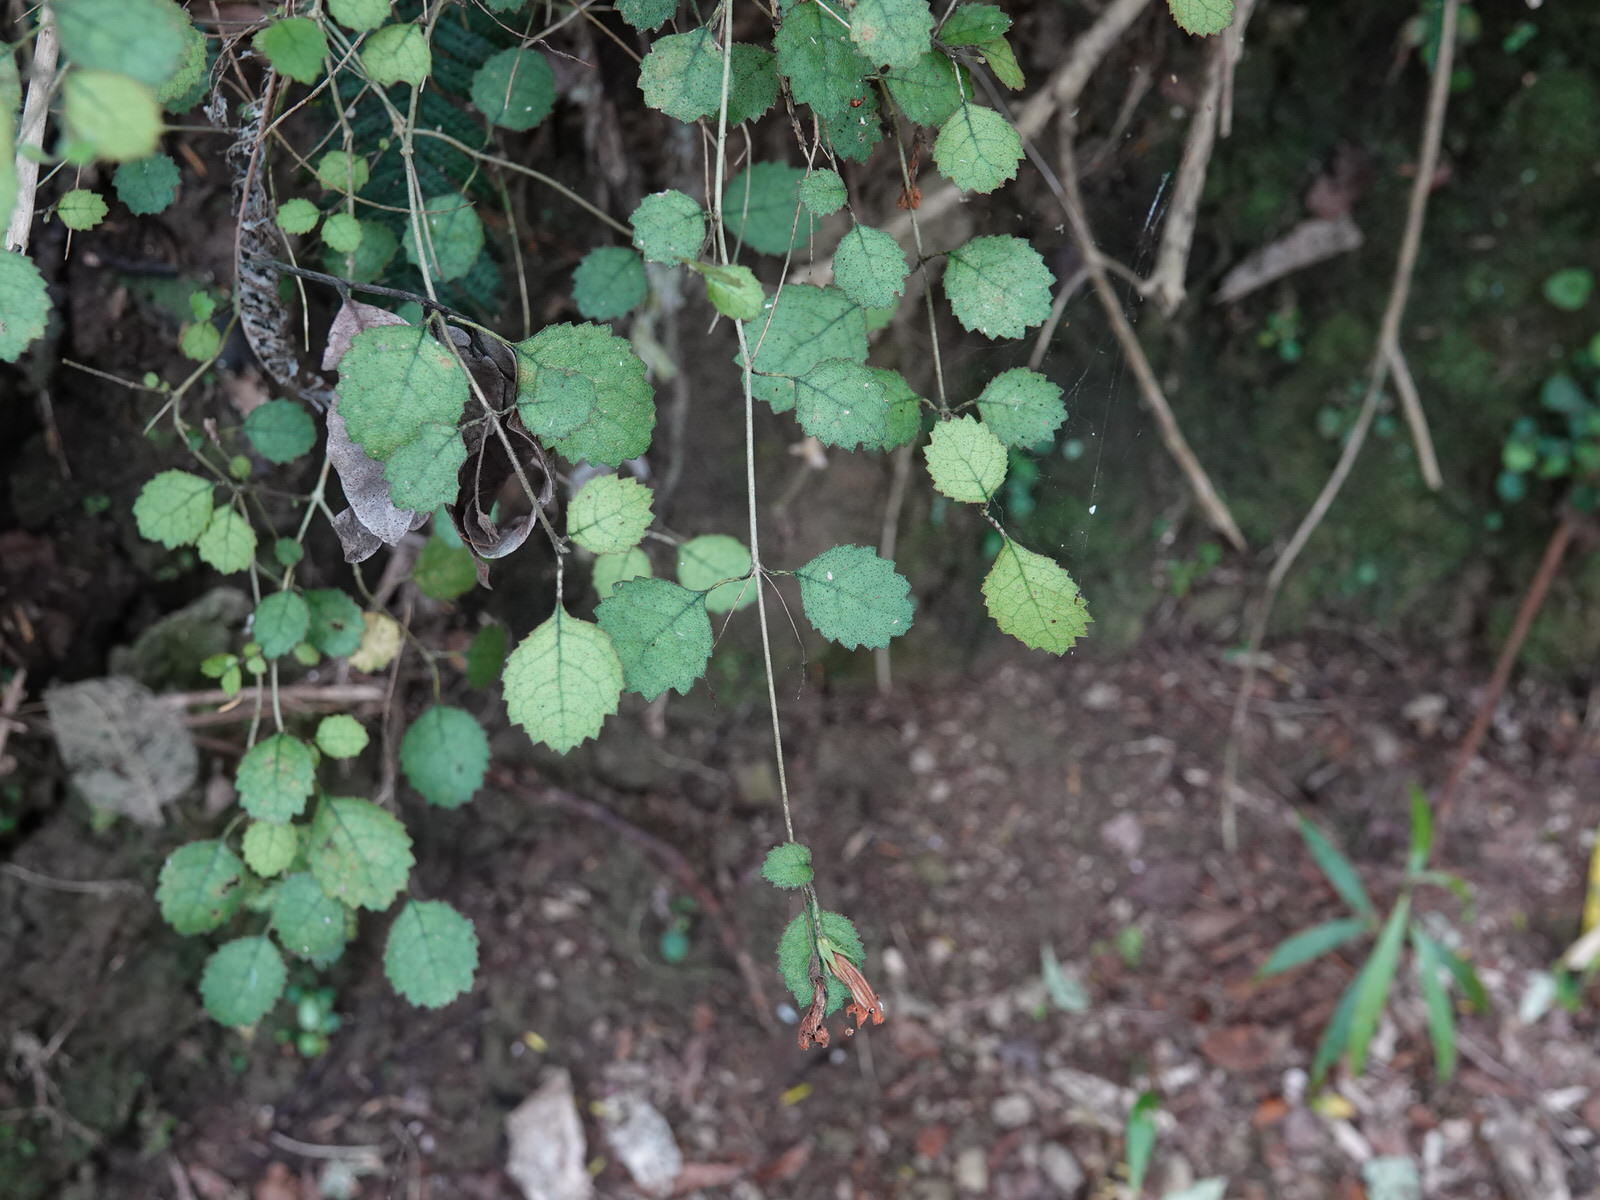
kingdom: Plantae
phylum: Tracheophyta
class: Magnoliopsida
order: Lamiales
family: Gesneriaceae
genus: Rhabdothamnus
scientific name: Rhabdothamnus solandri
